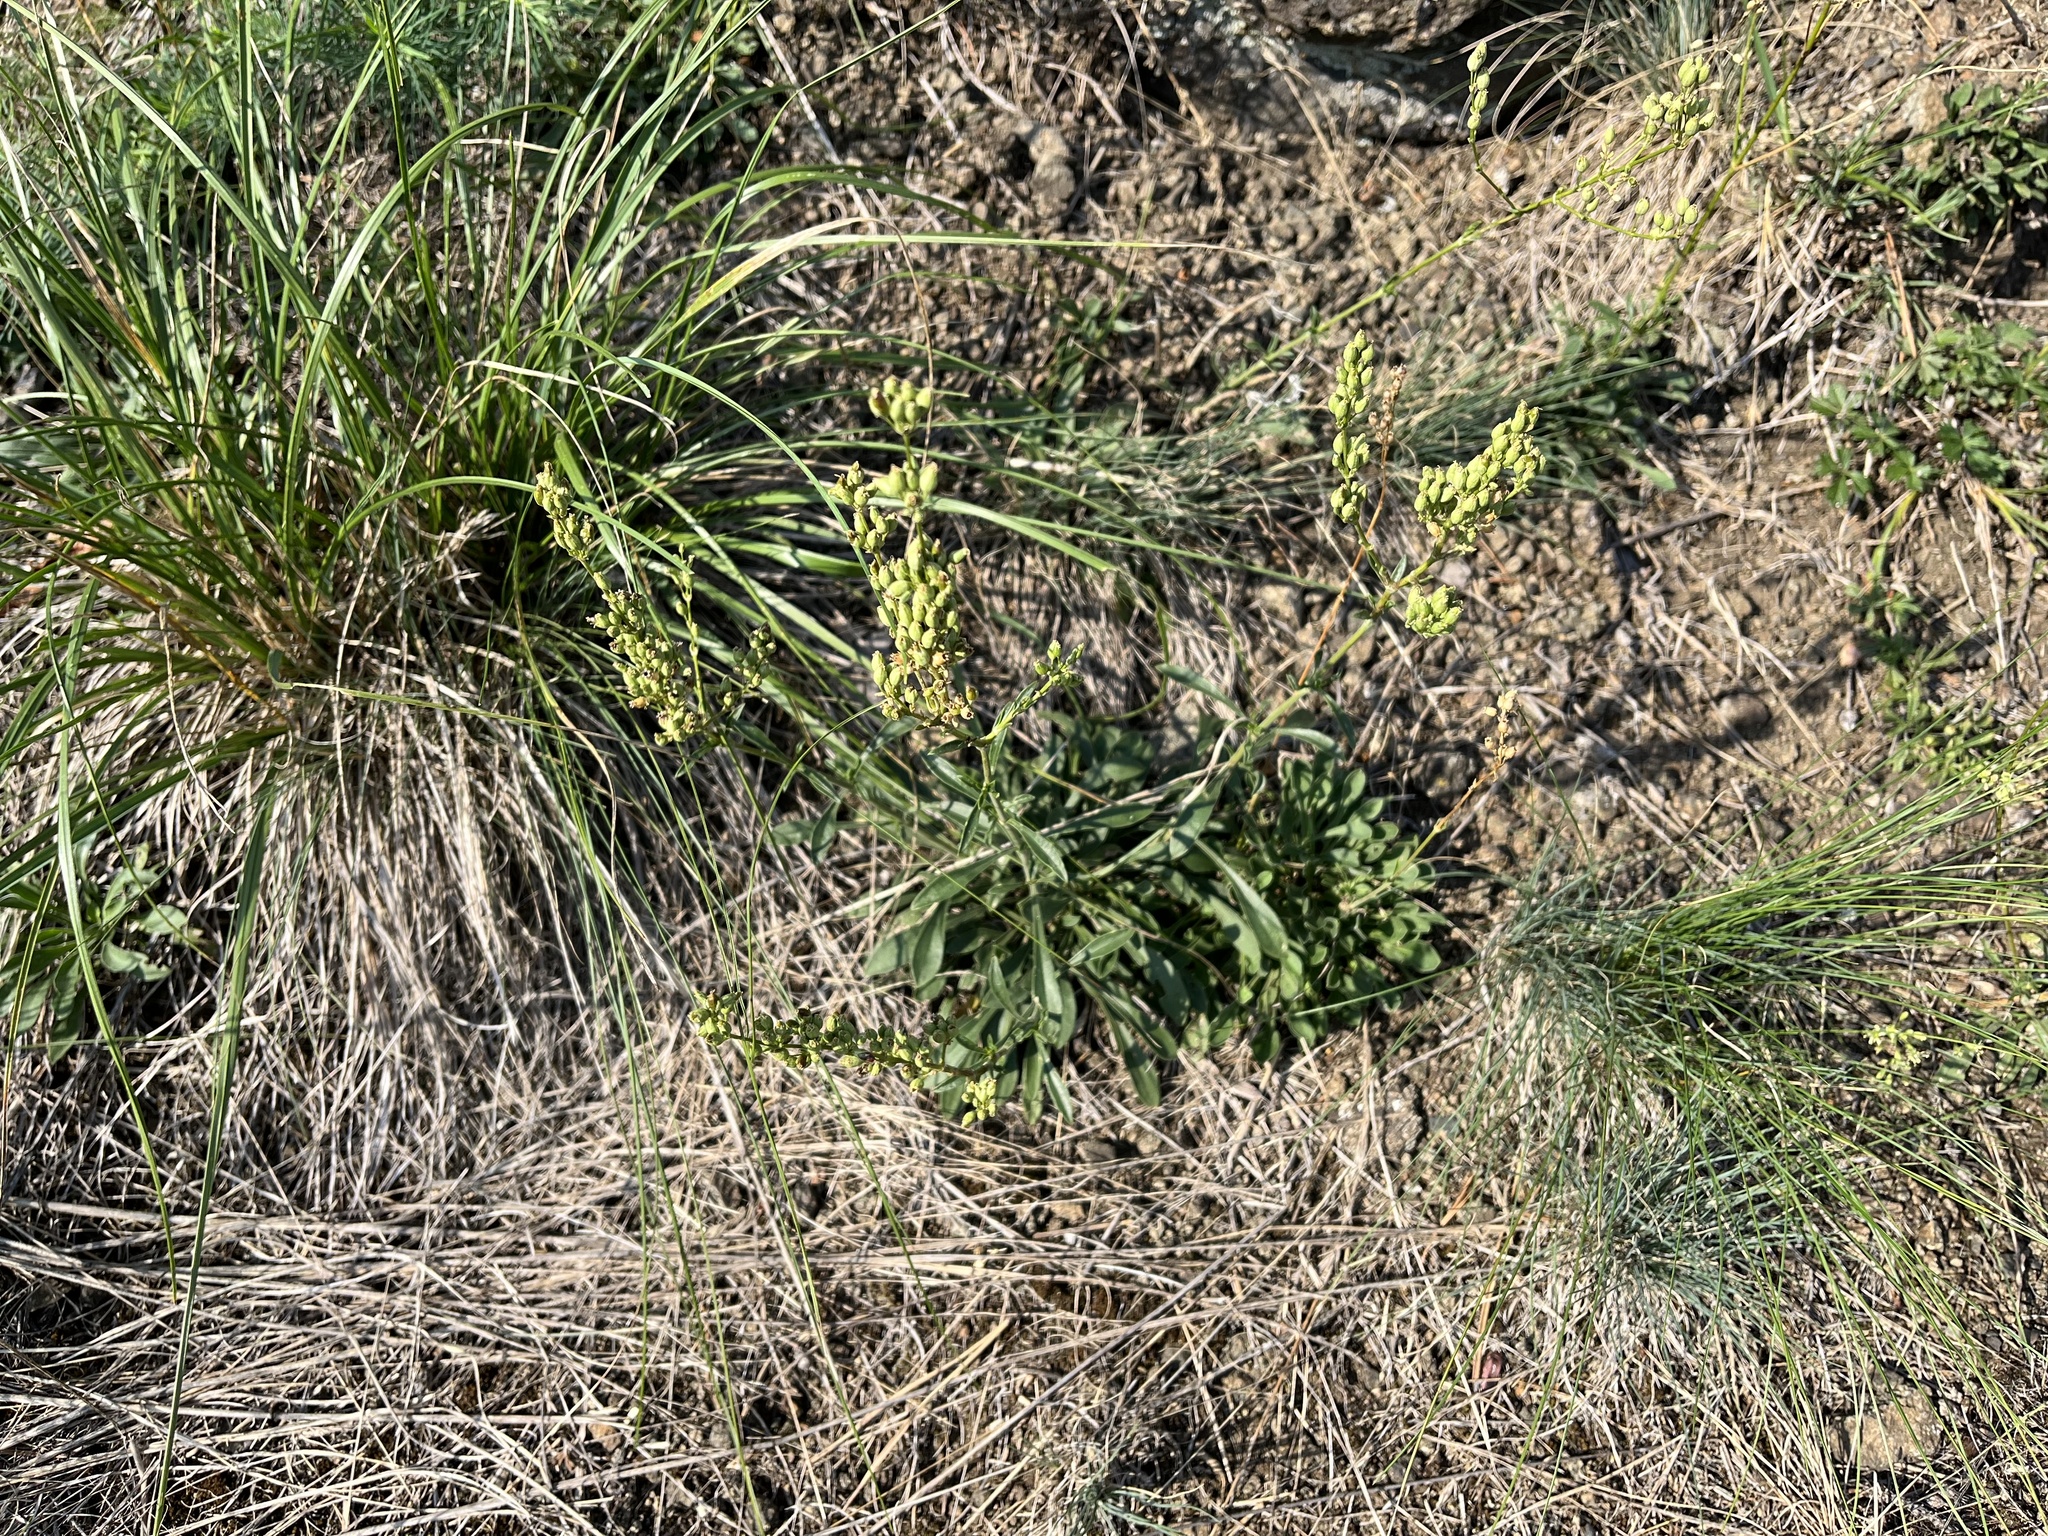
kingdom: Plantae
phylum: Tracheophyta
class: Magnoliopsida
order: Caryophyllales
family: Caryophyllaceae
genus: Silene
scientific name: Silene otites
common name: Spanish catchfly
